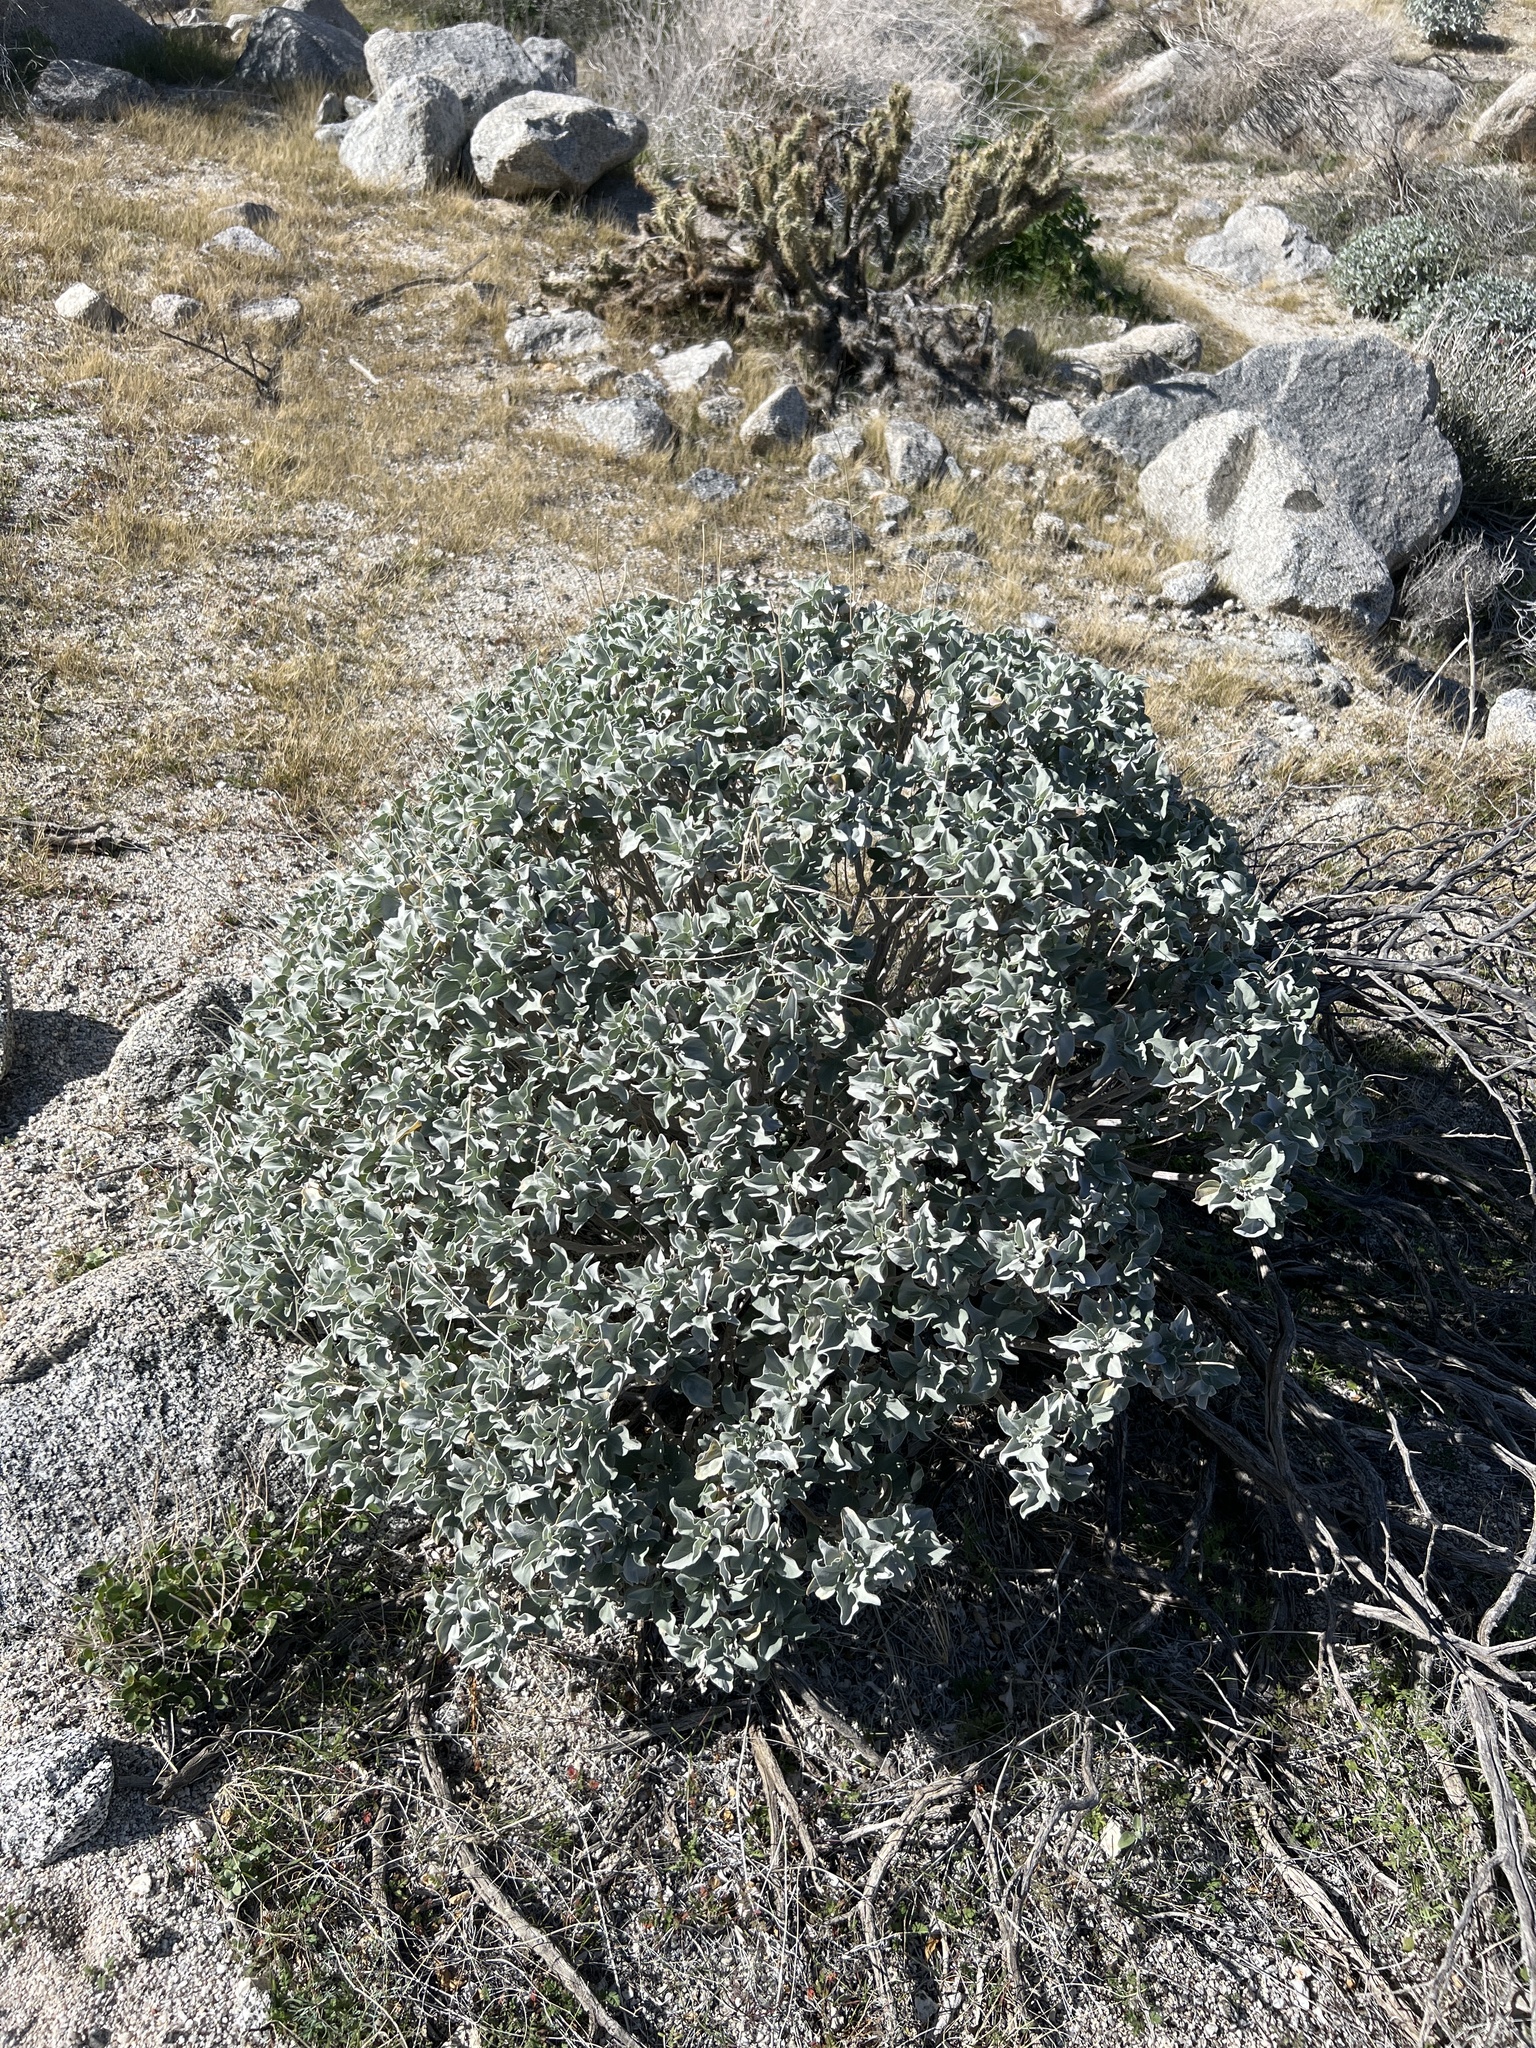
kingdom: Plantae
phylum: Tracheophyta
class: Magnoliopsida
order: Asterales
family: Asteraceae
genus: Encelia
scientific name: Encelia farinosa
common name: Brittlebush
